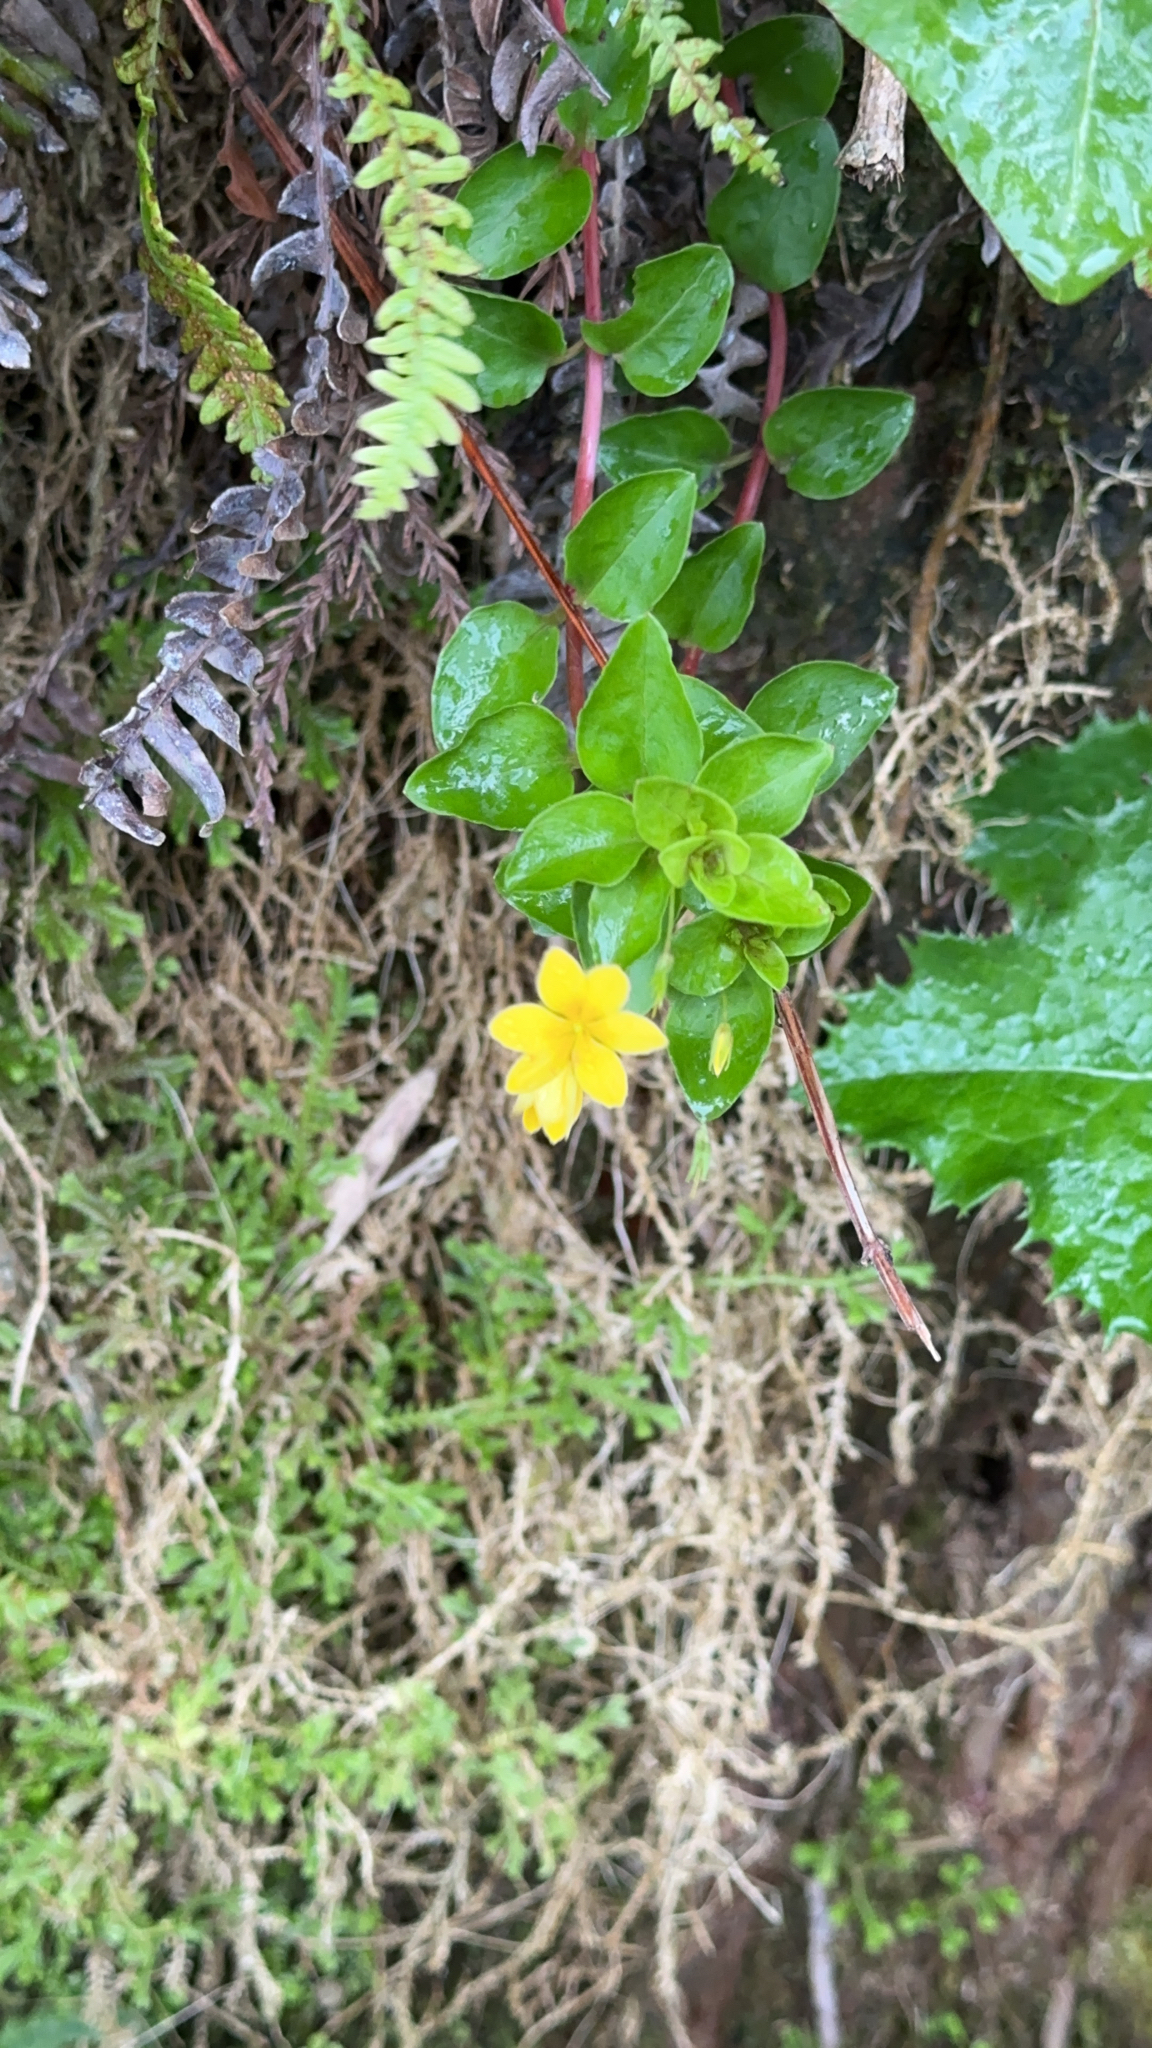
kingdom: Plantae
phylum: Tracheophyta
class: Magnoliopsida
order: Ericales
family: Primulaceae
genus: Lysimachia
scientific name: Lysimachia azorica
